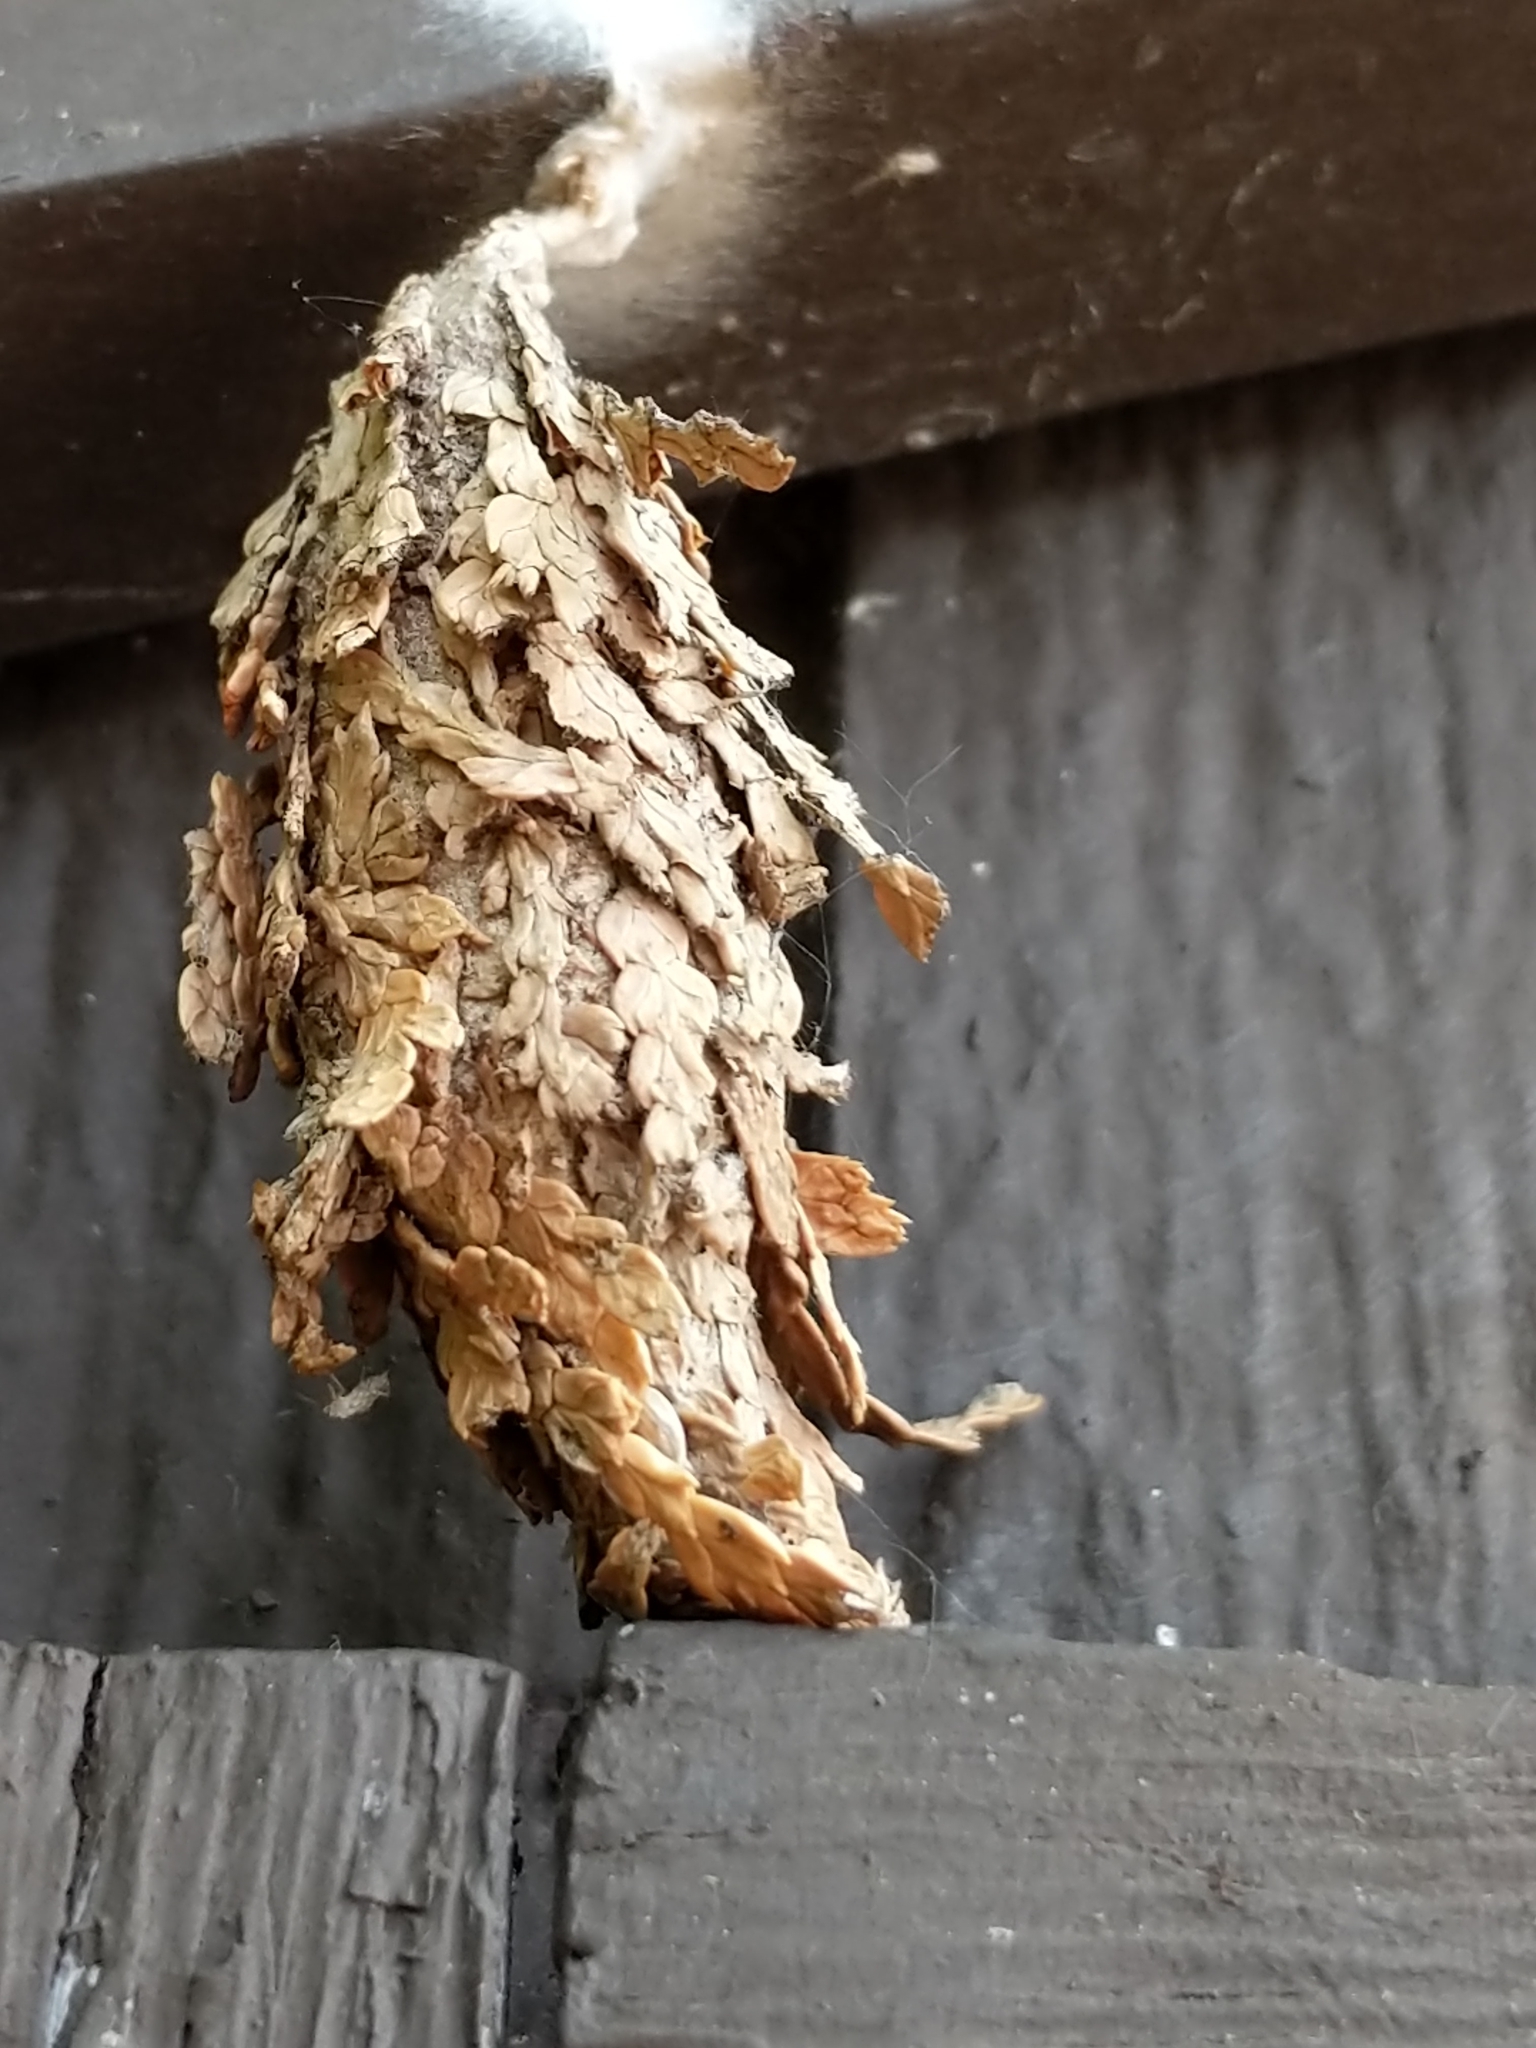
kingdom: Animalia
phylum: Arthropoda
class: Insecta
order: Lepidoptera
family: Psychidae
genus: Thyridopteryx
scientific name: Thyridopteryx ephemeraeformis
